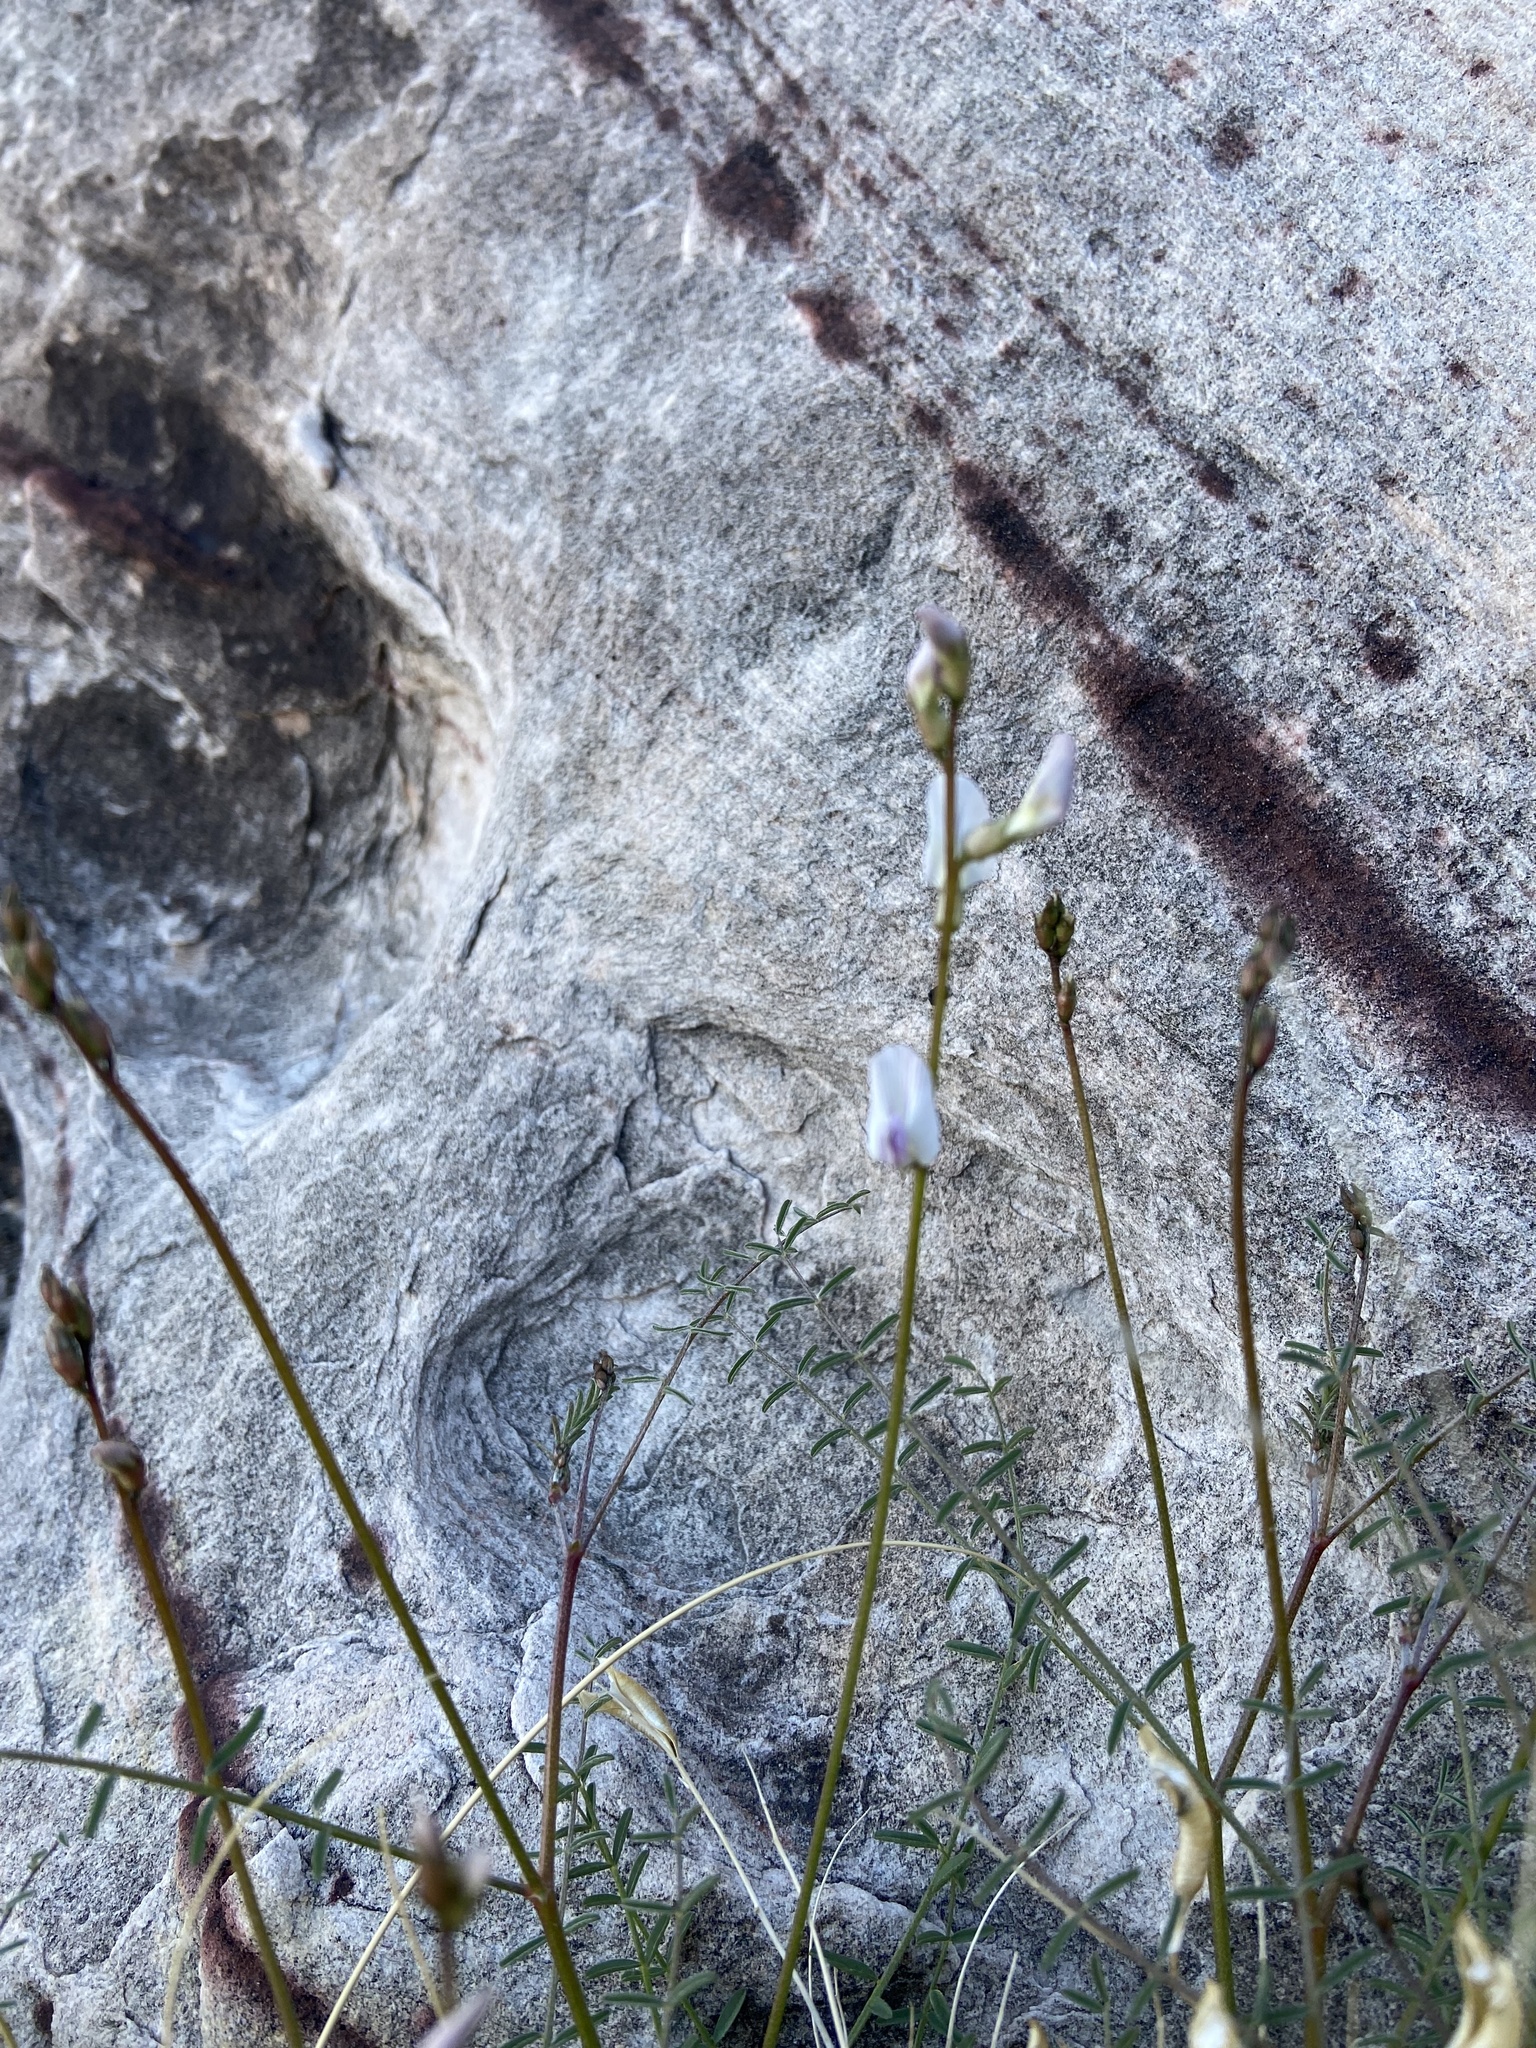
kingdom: Plantae
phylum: Tracheophyta
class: Magnoliopsida
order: Fabales
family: Fabaceae
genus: Astragalus
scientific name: Astragalus remotus
